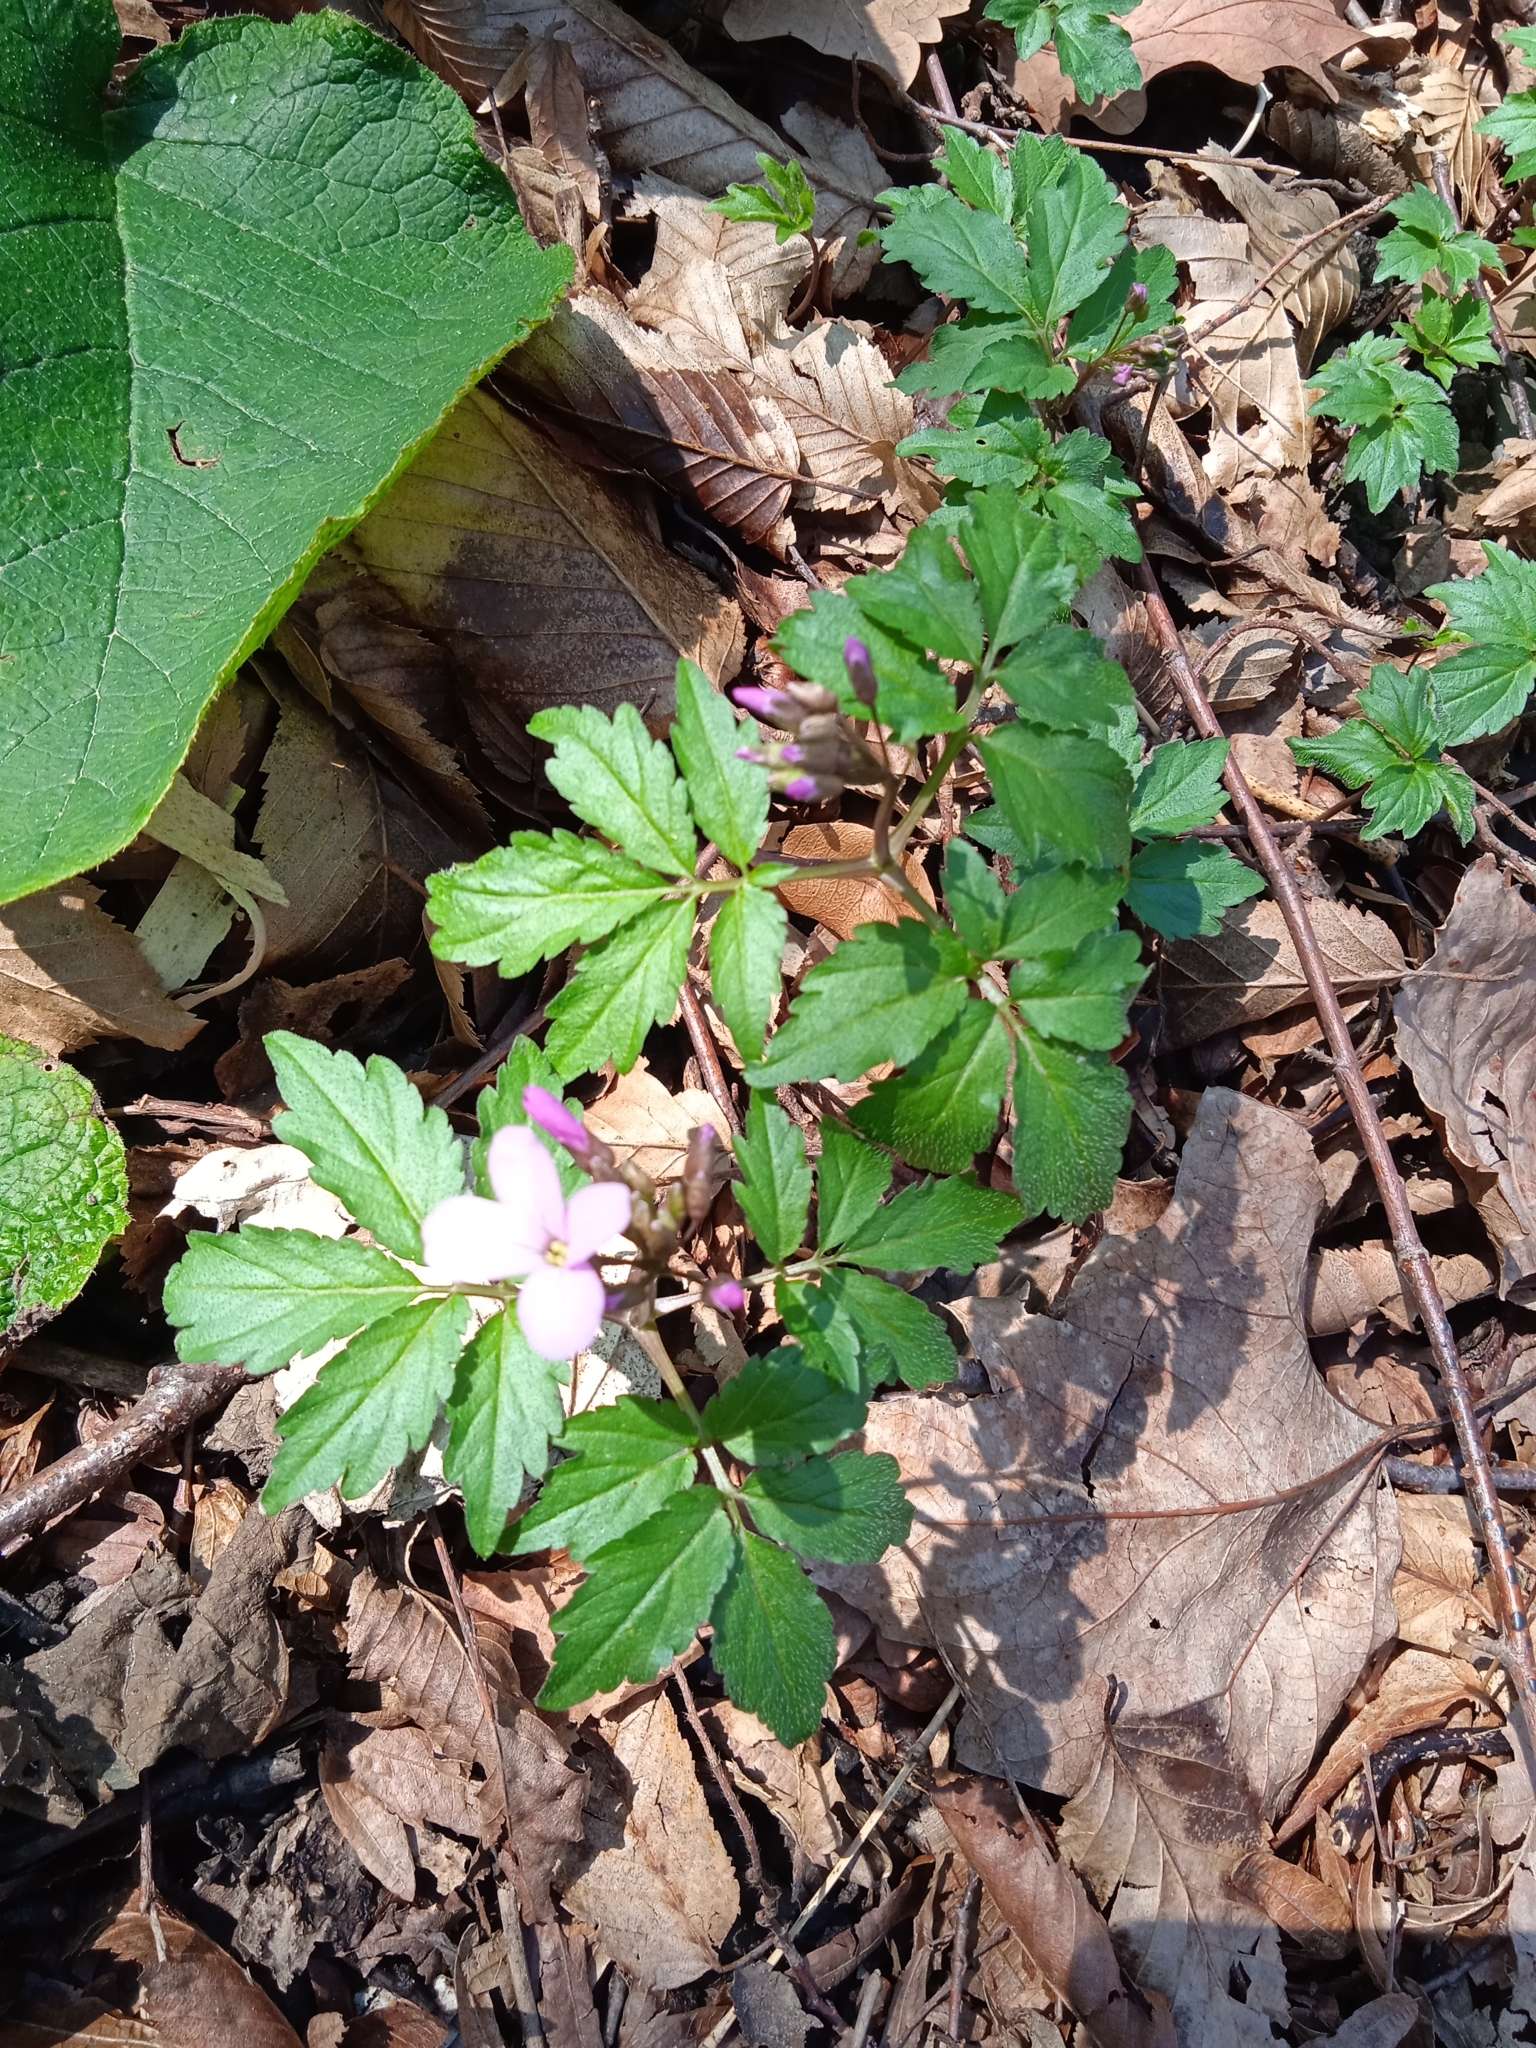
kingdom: Plantae
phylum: Tracheophyta
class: Magnoliopsida
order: Brassicales
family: Brassicaceae
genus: Cardamine
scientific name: Cardamine quinquefolia
